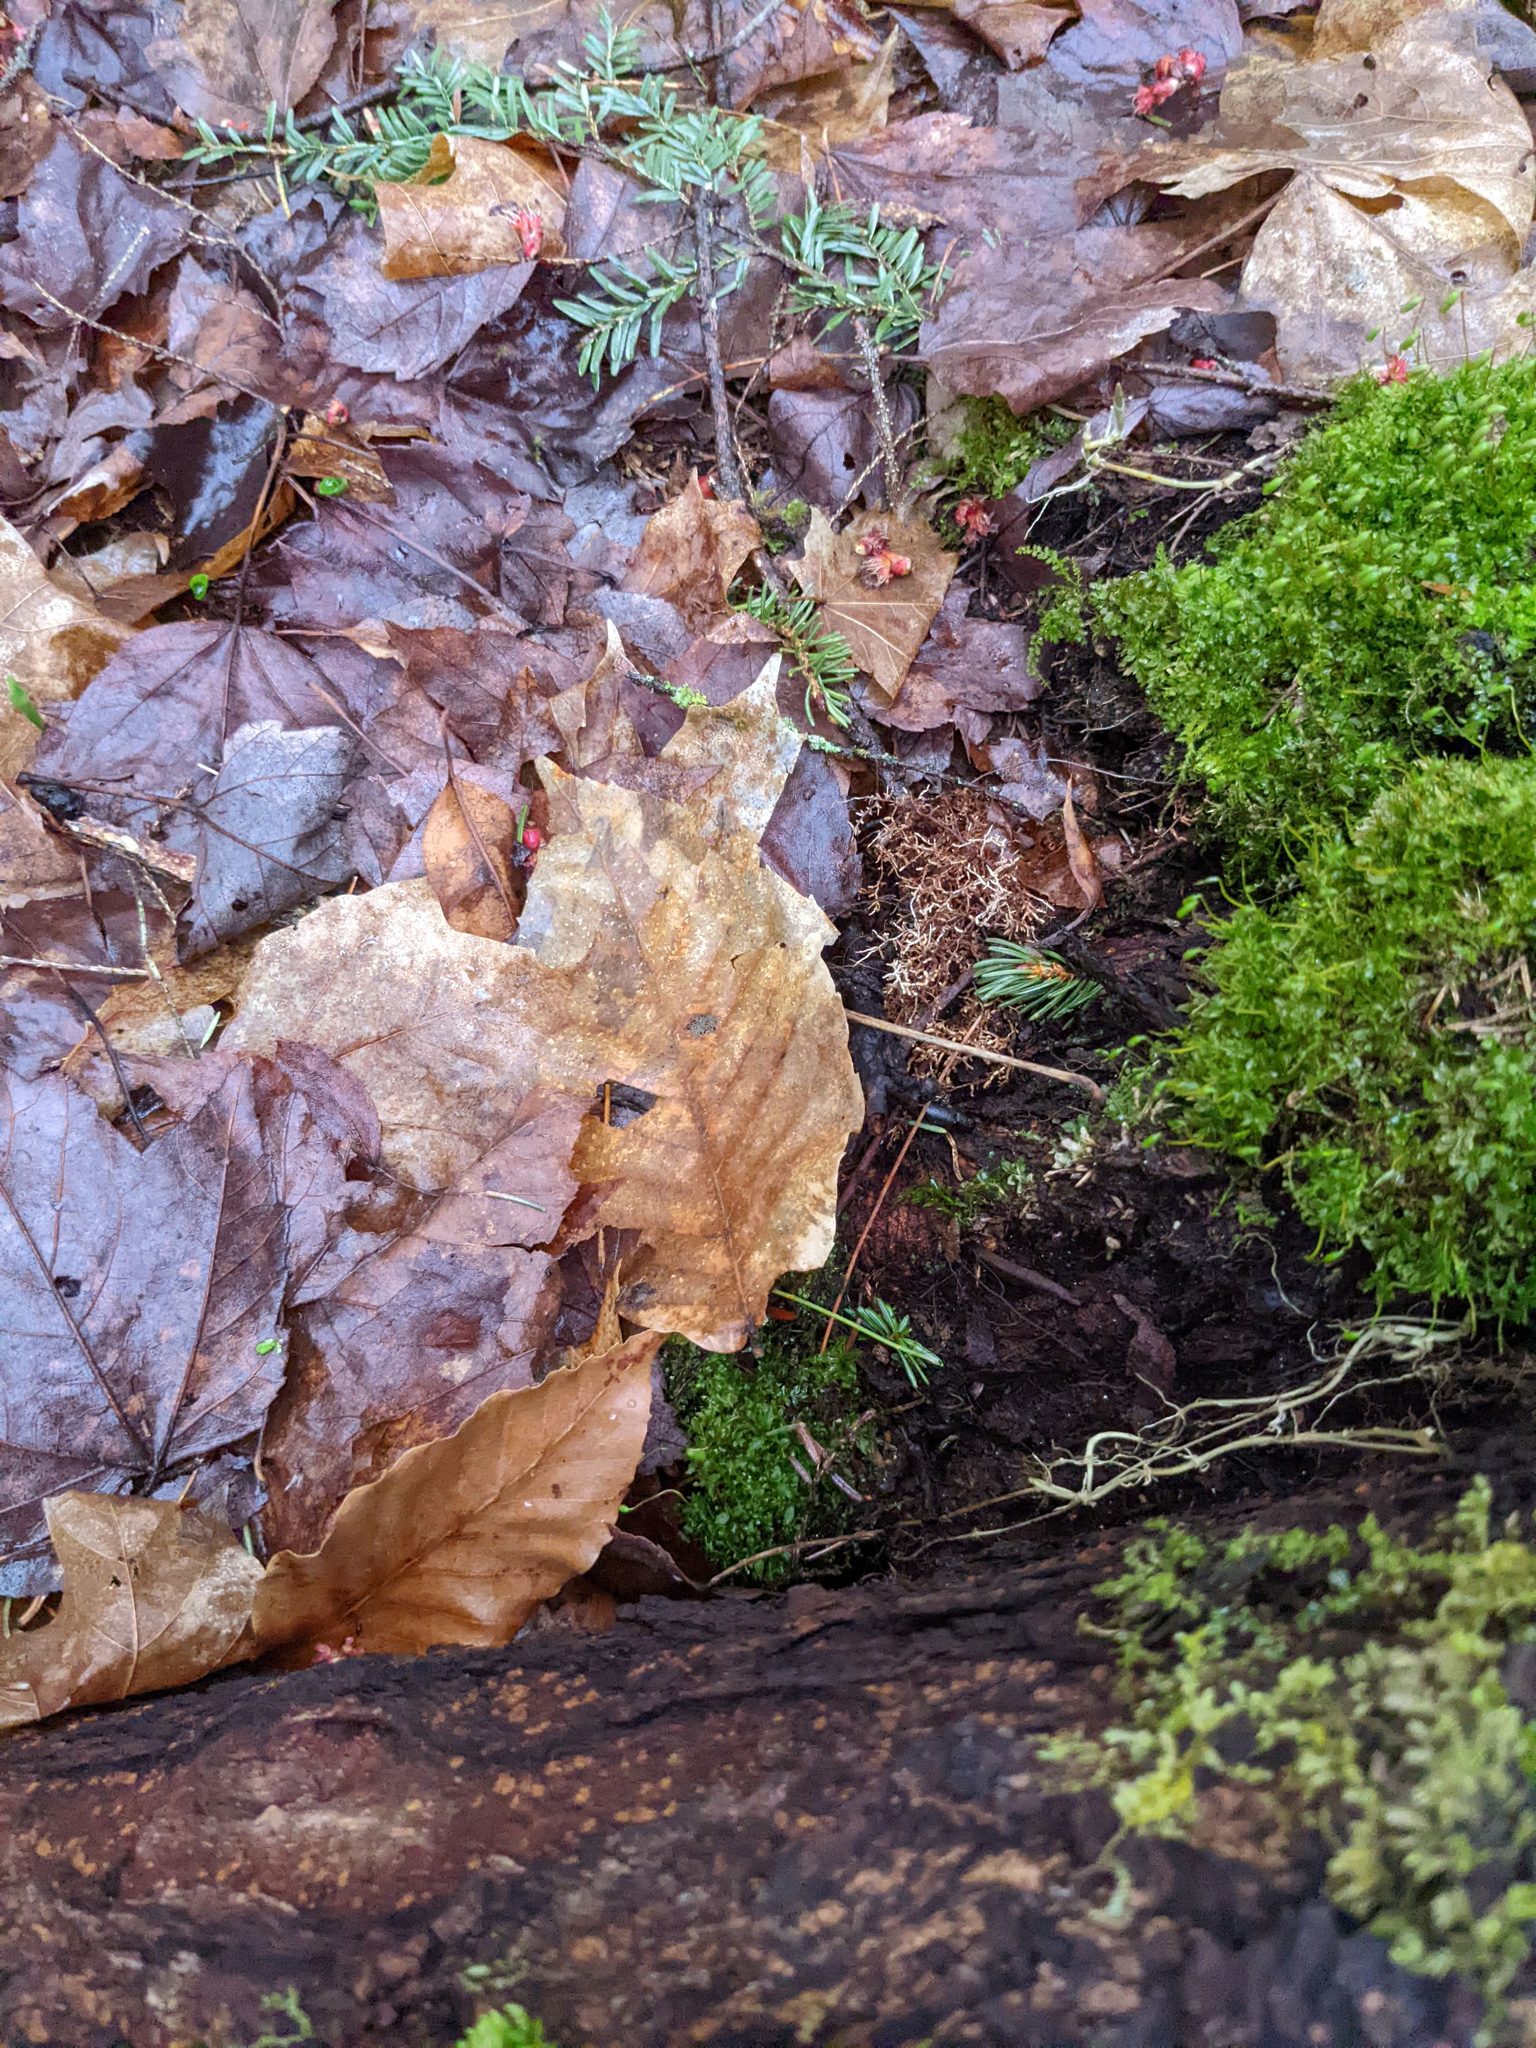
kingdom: Plantae
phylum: Tracheophyta
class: Magnoliopsida
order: Fagales
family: Fagaceae
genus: Fagus
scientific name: Fagus grandifolia
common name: American beech
